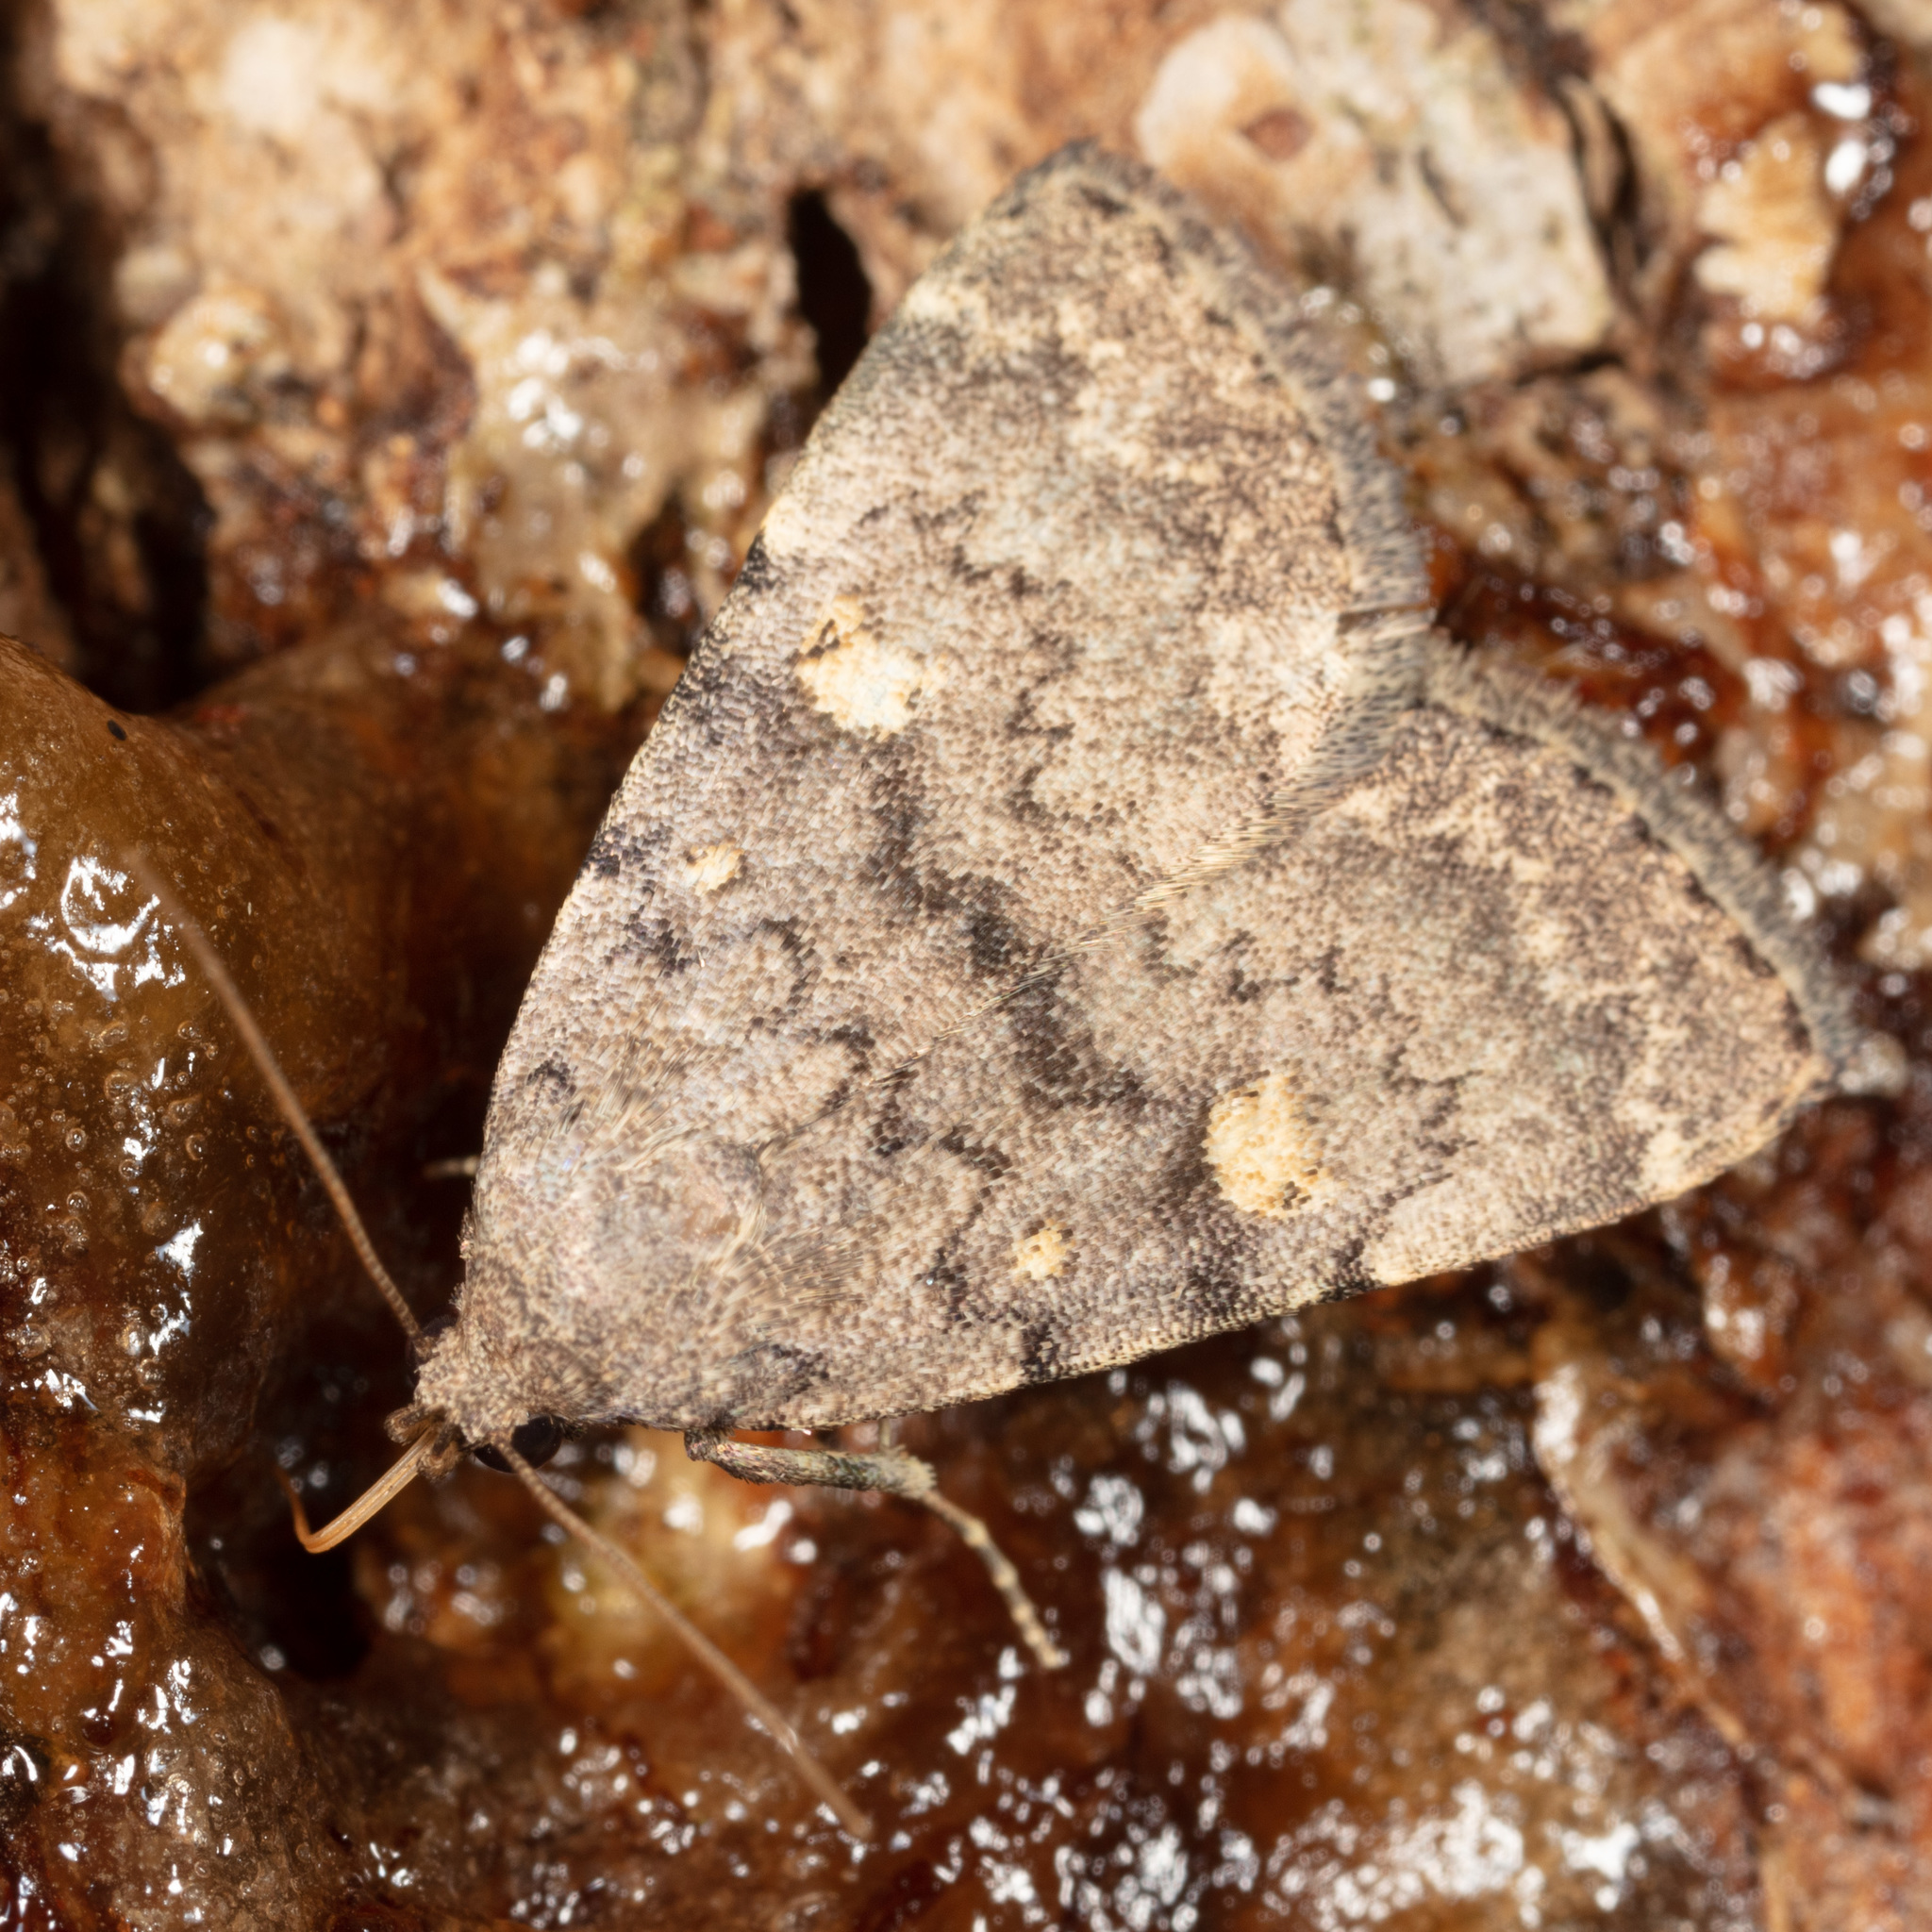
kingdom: Animalia
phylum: Arthropoda
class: Insecta
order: Lepidoptera
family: Erebidae
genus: Idia
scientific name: Idia aemula
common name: Common idia moth
